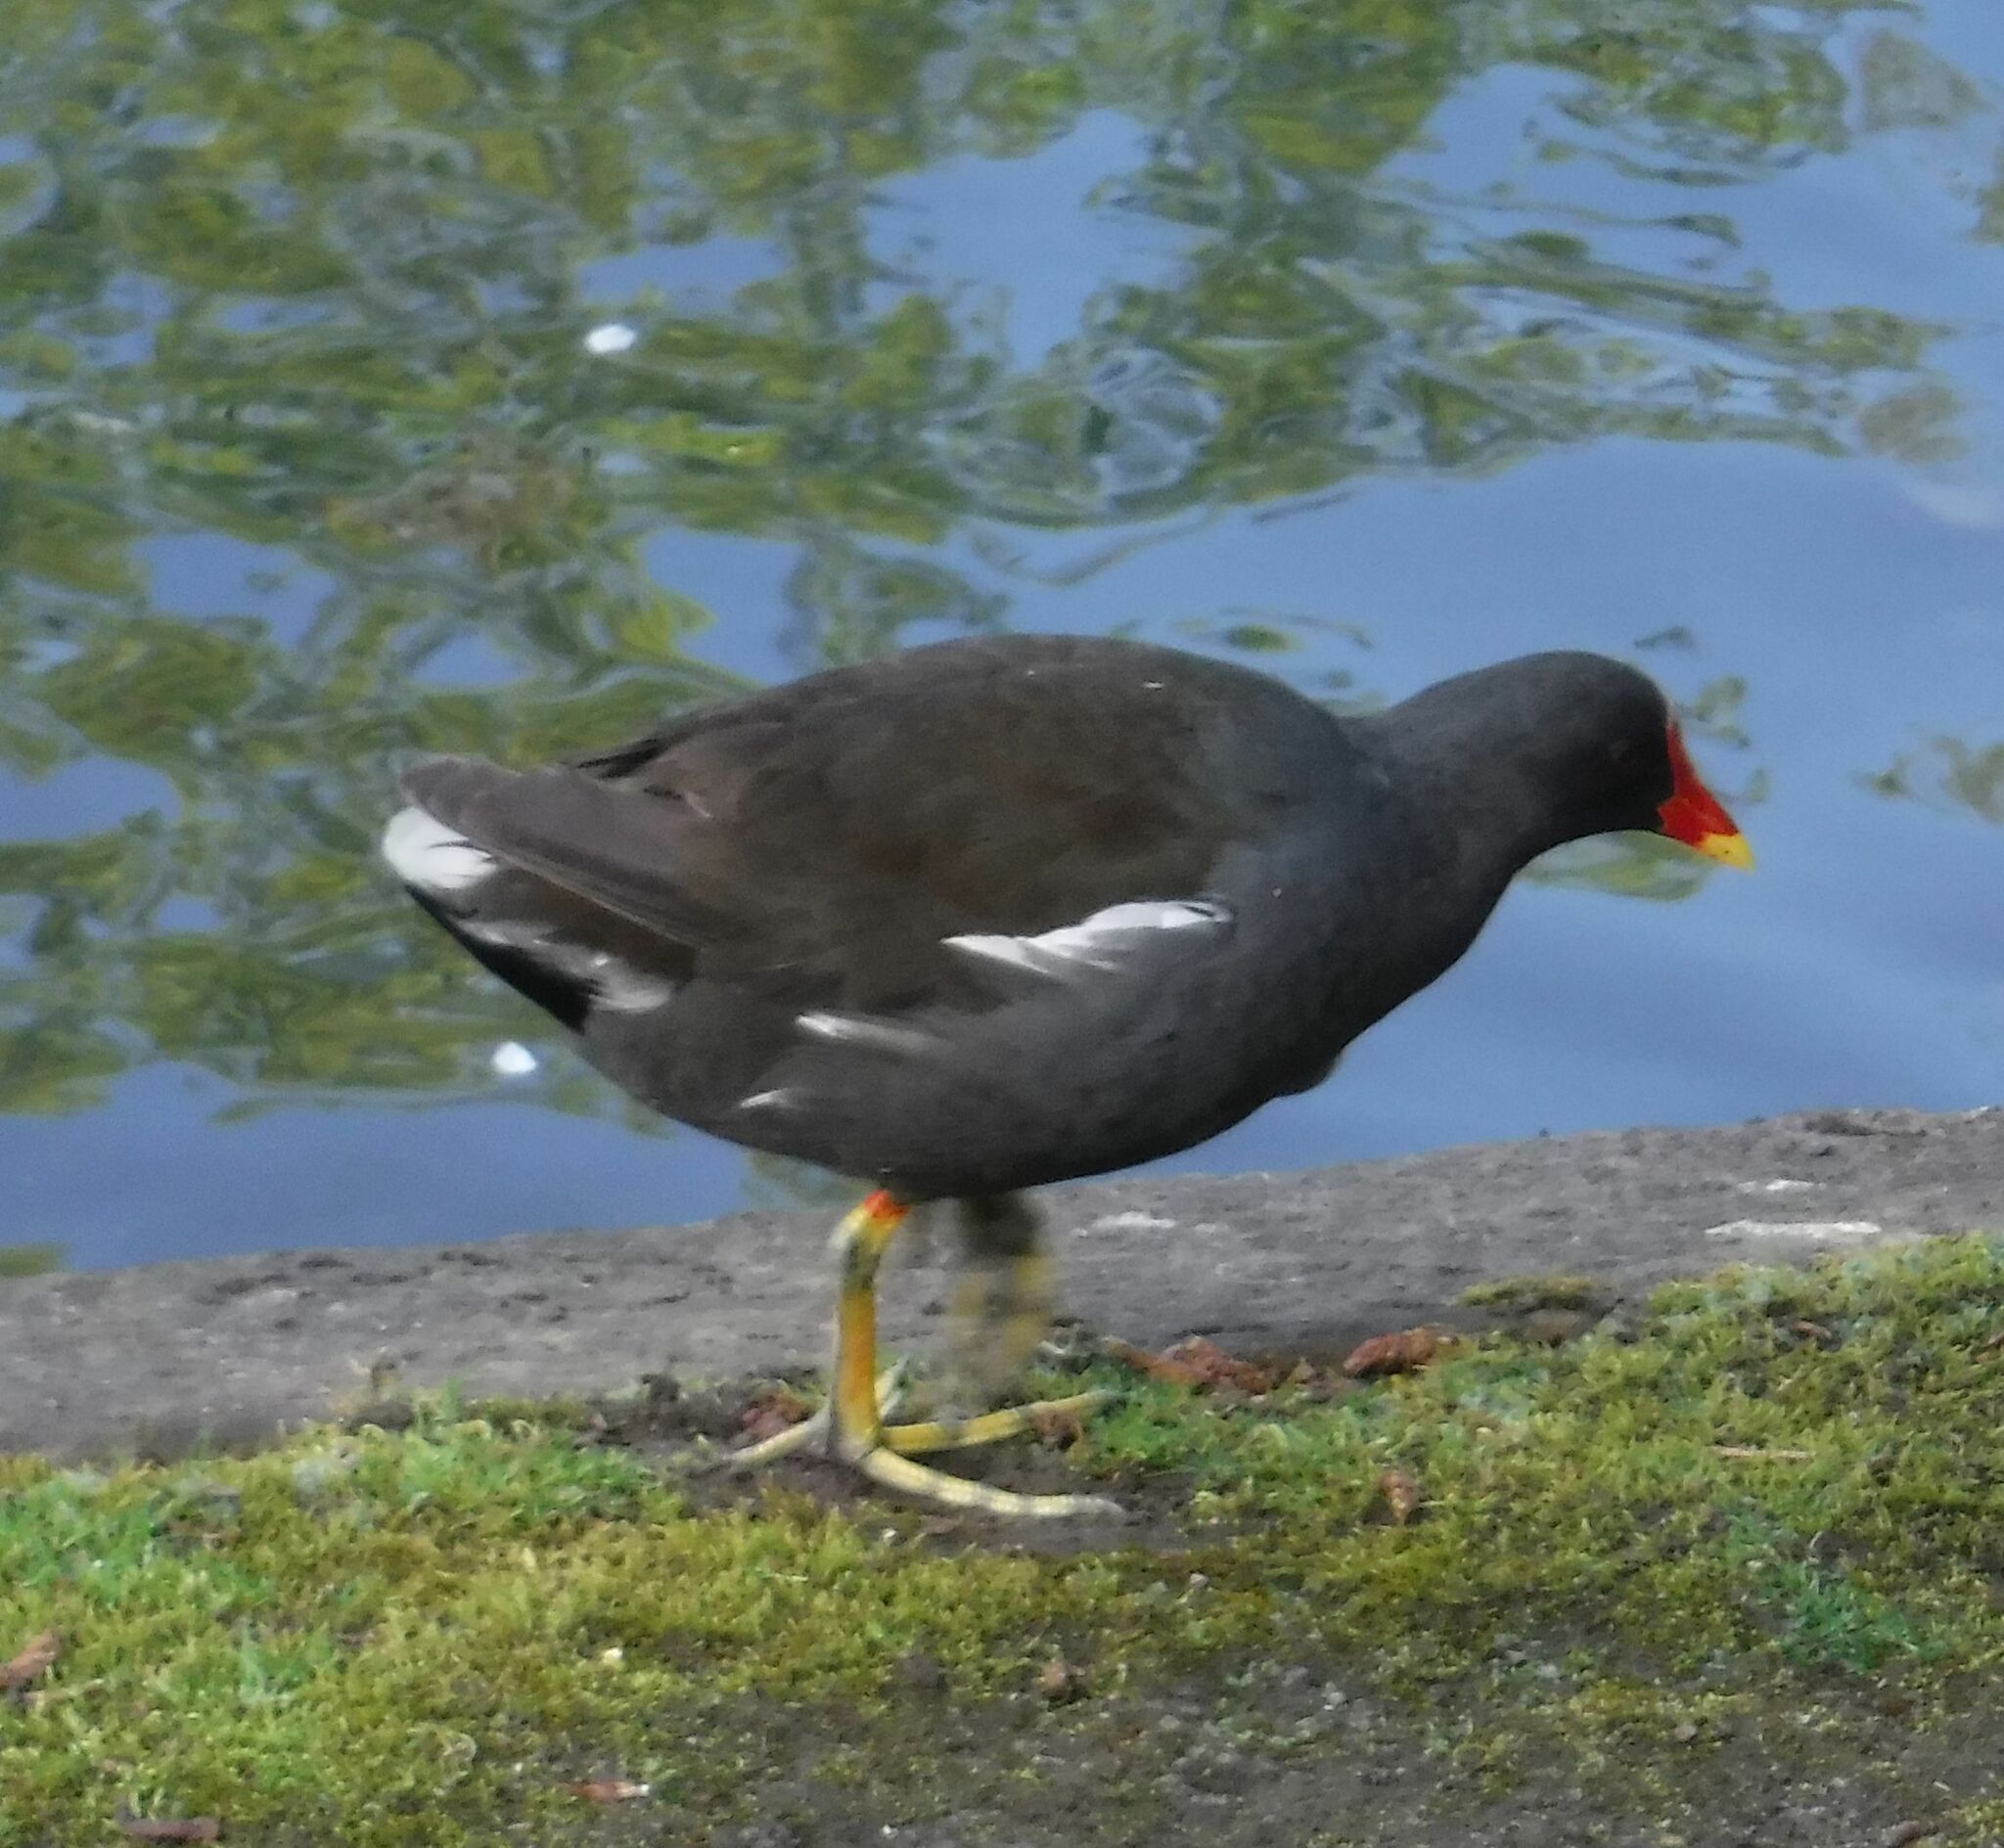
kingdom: Animalia
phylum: Chordata
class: Aves
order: Gruiformes
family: Rallidae
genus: Gallinula
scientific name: Gallinula chloropus
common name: Common moorhen
